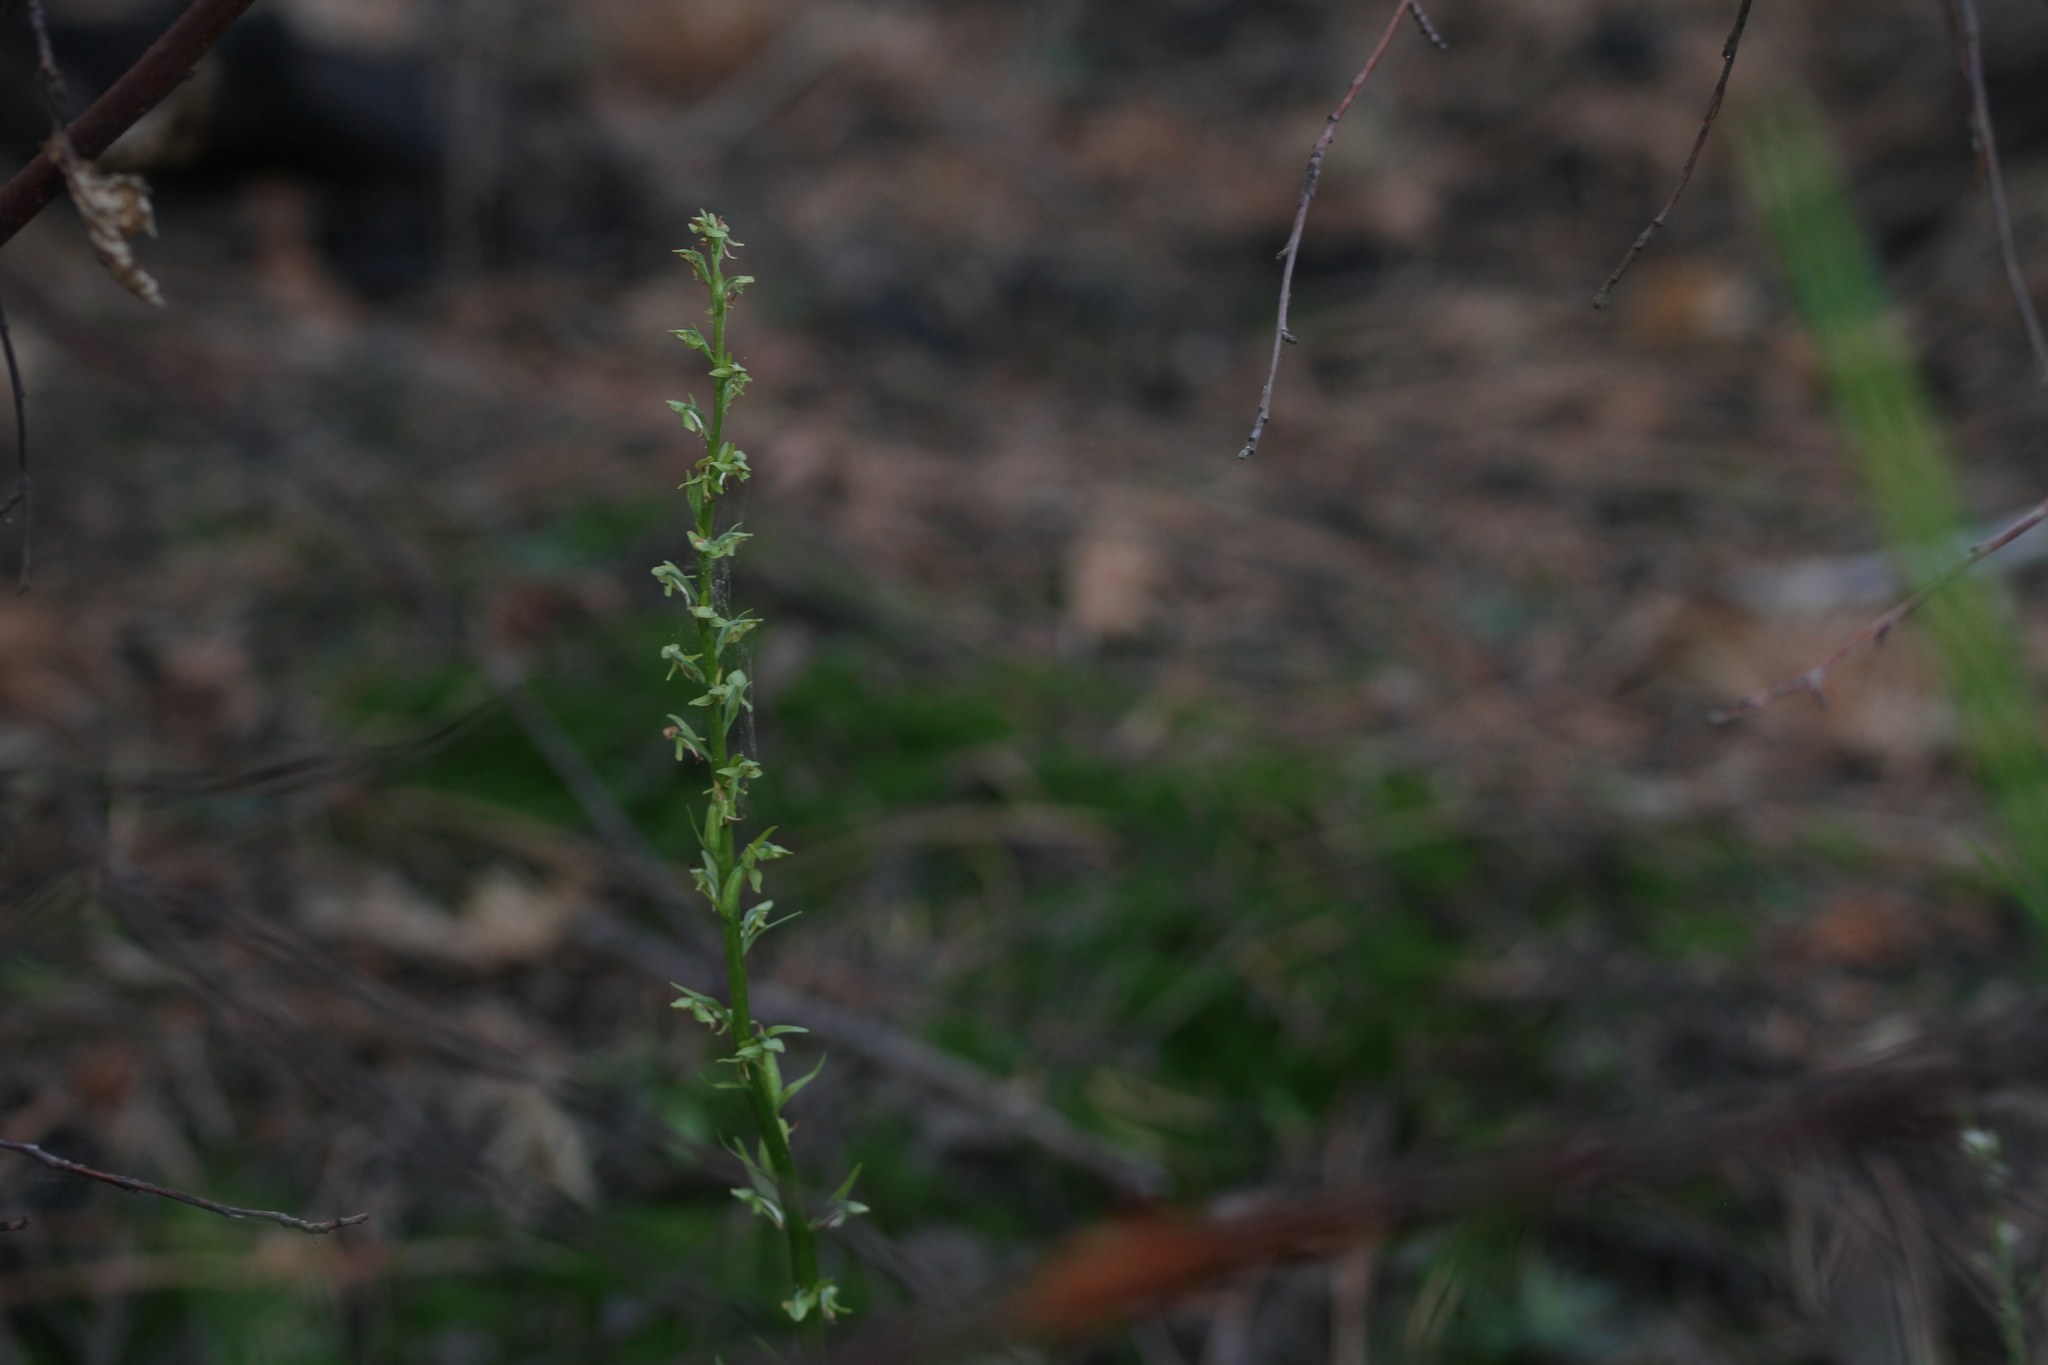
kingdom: Plantae
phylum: Tracheophyta
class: Liliopsida
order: Asparagales
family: Orchidaceae
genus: Platanthera
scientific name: Platanthera sparsiflora
